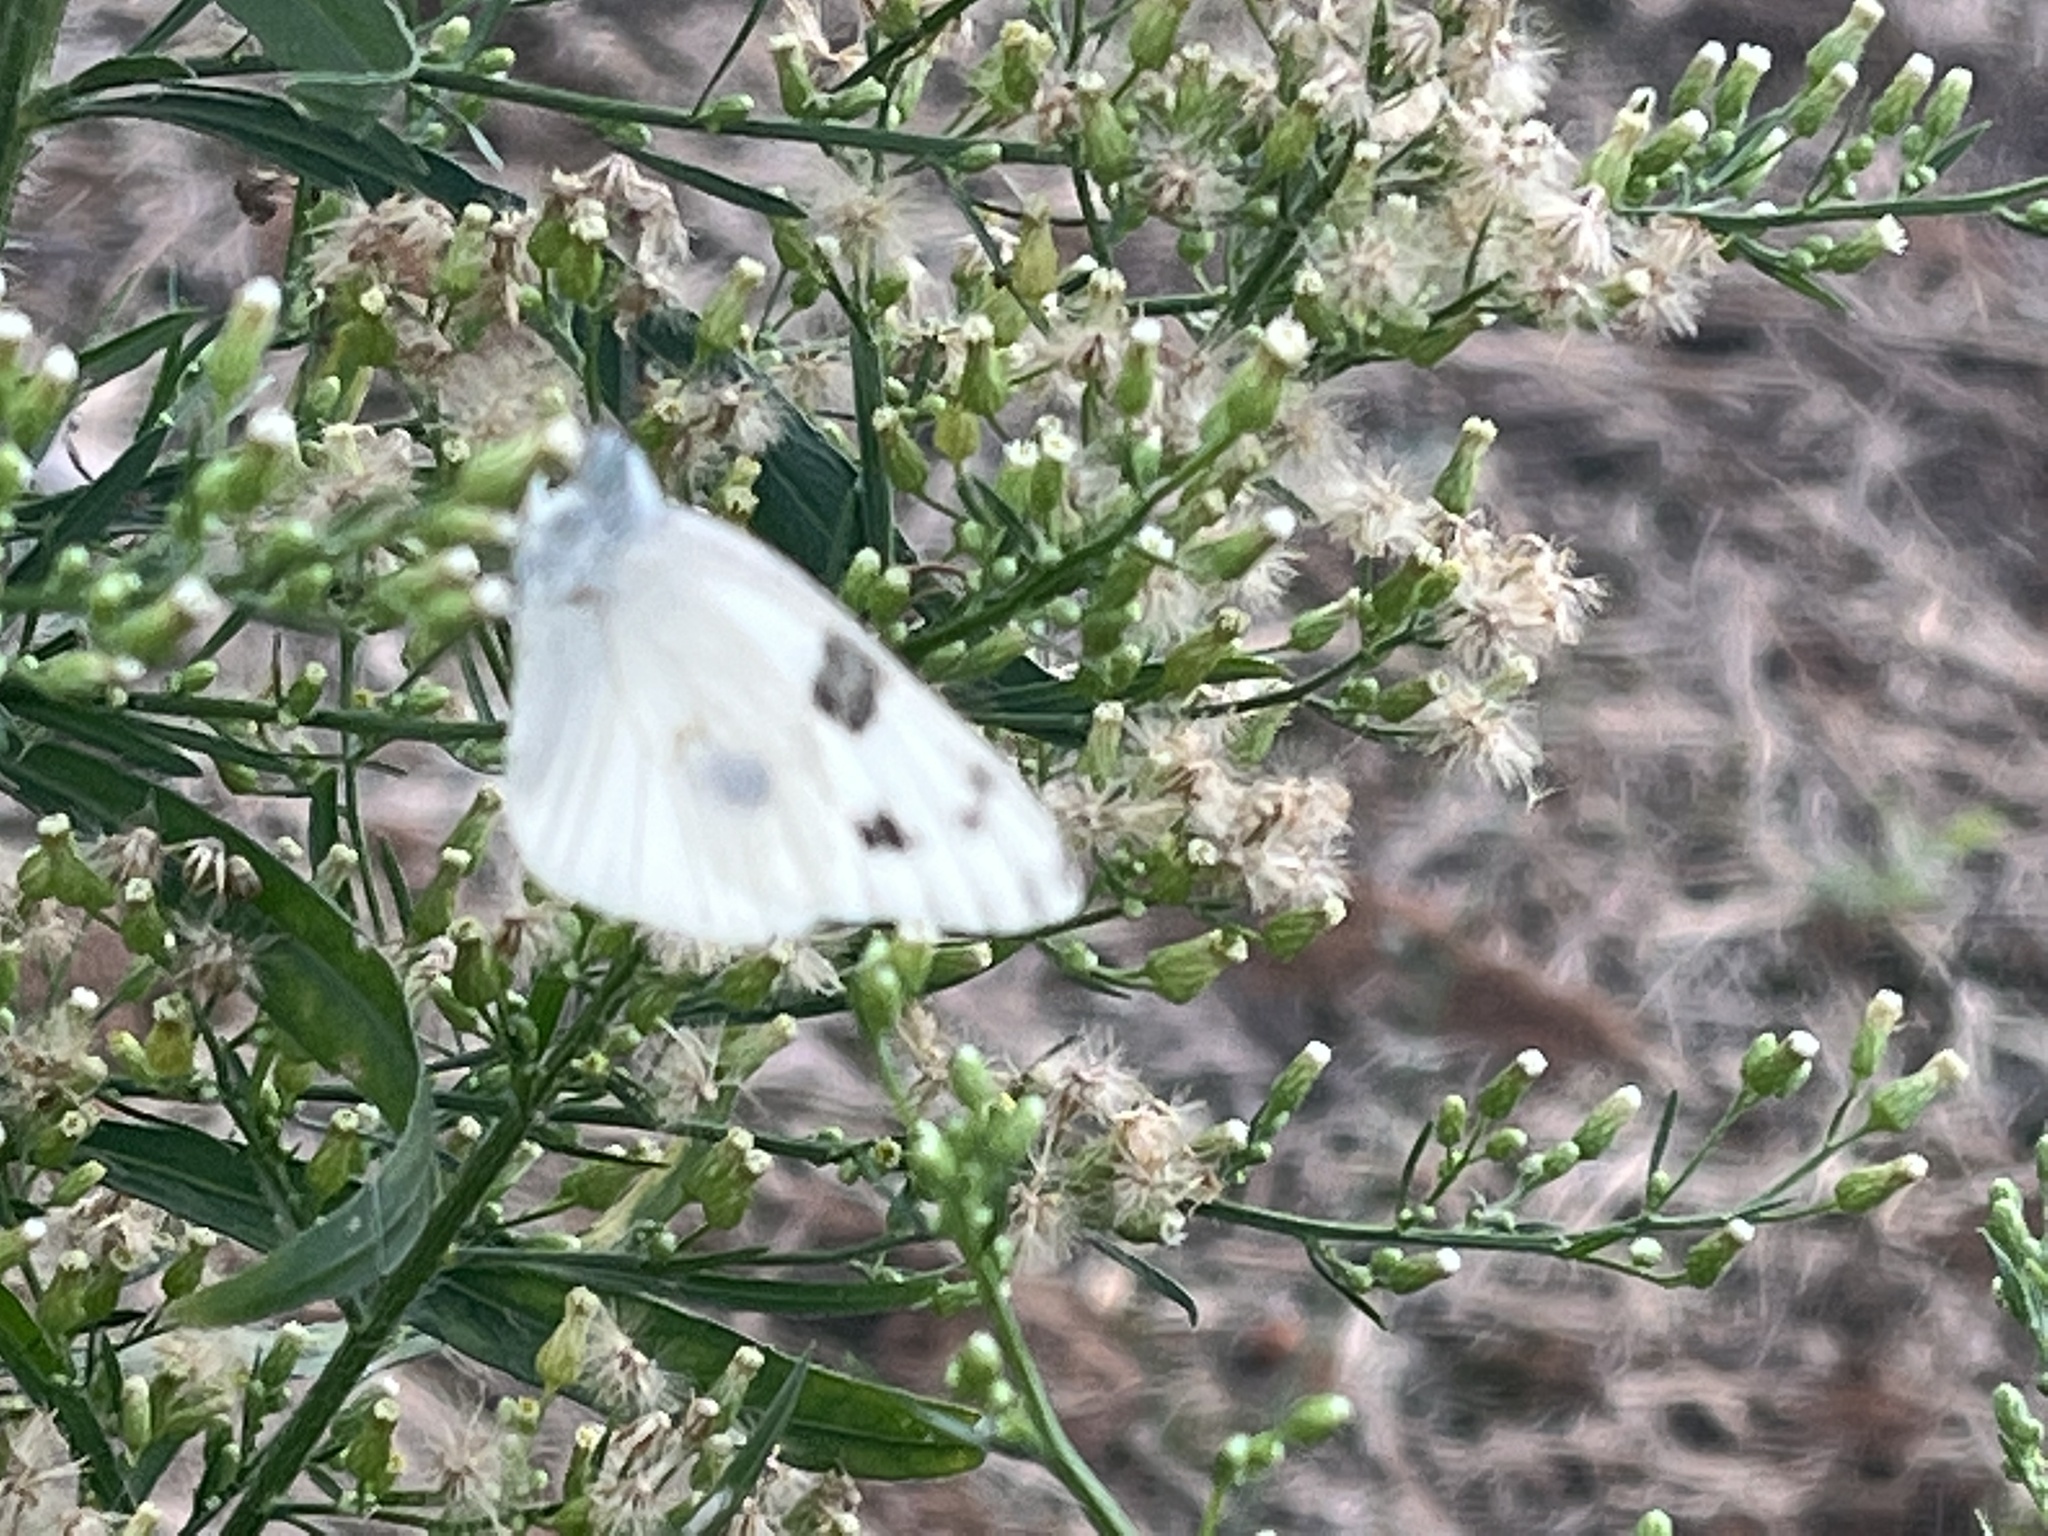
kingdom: Animalia
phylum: Arthropoda
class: Insecta
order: Lepidoptera
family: Pieridae
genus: Pontia
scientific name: Pontia protodice
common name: Checkered white
